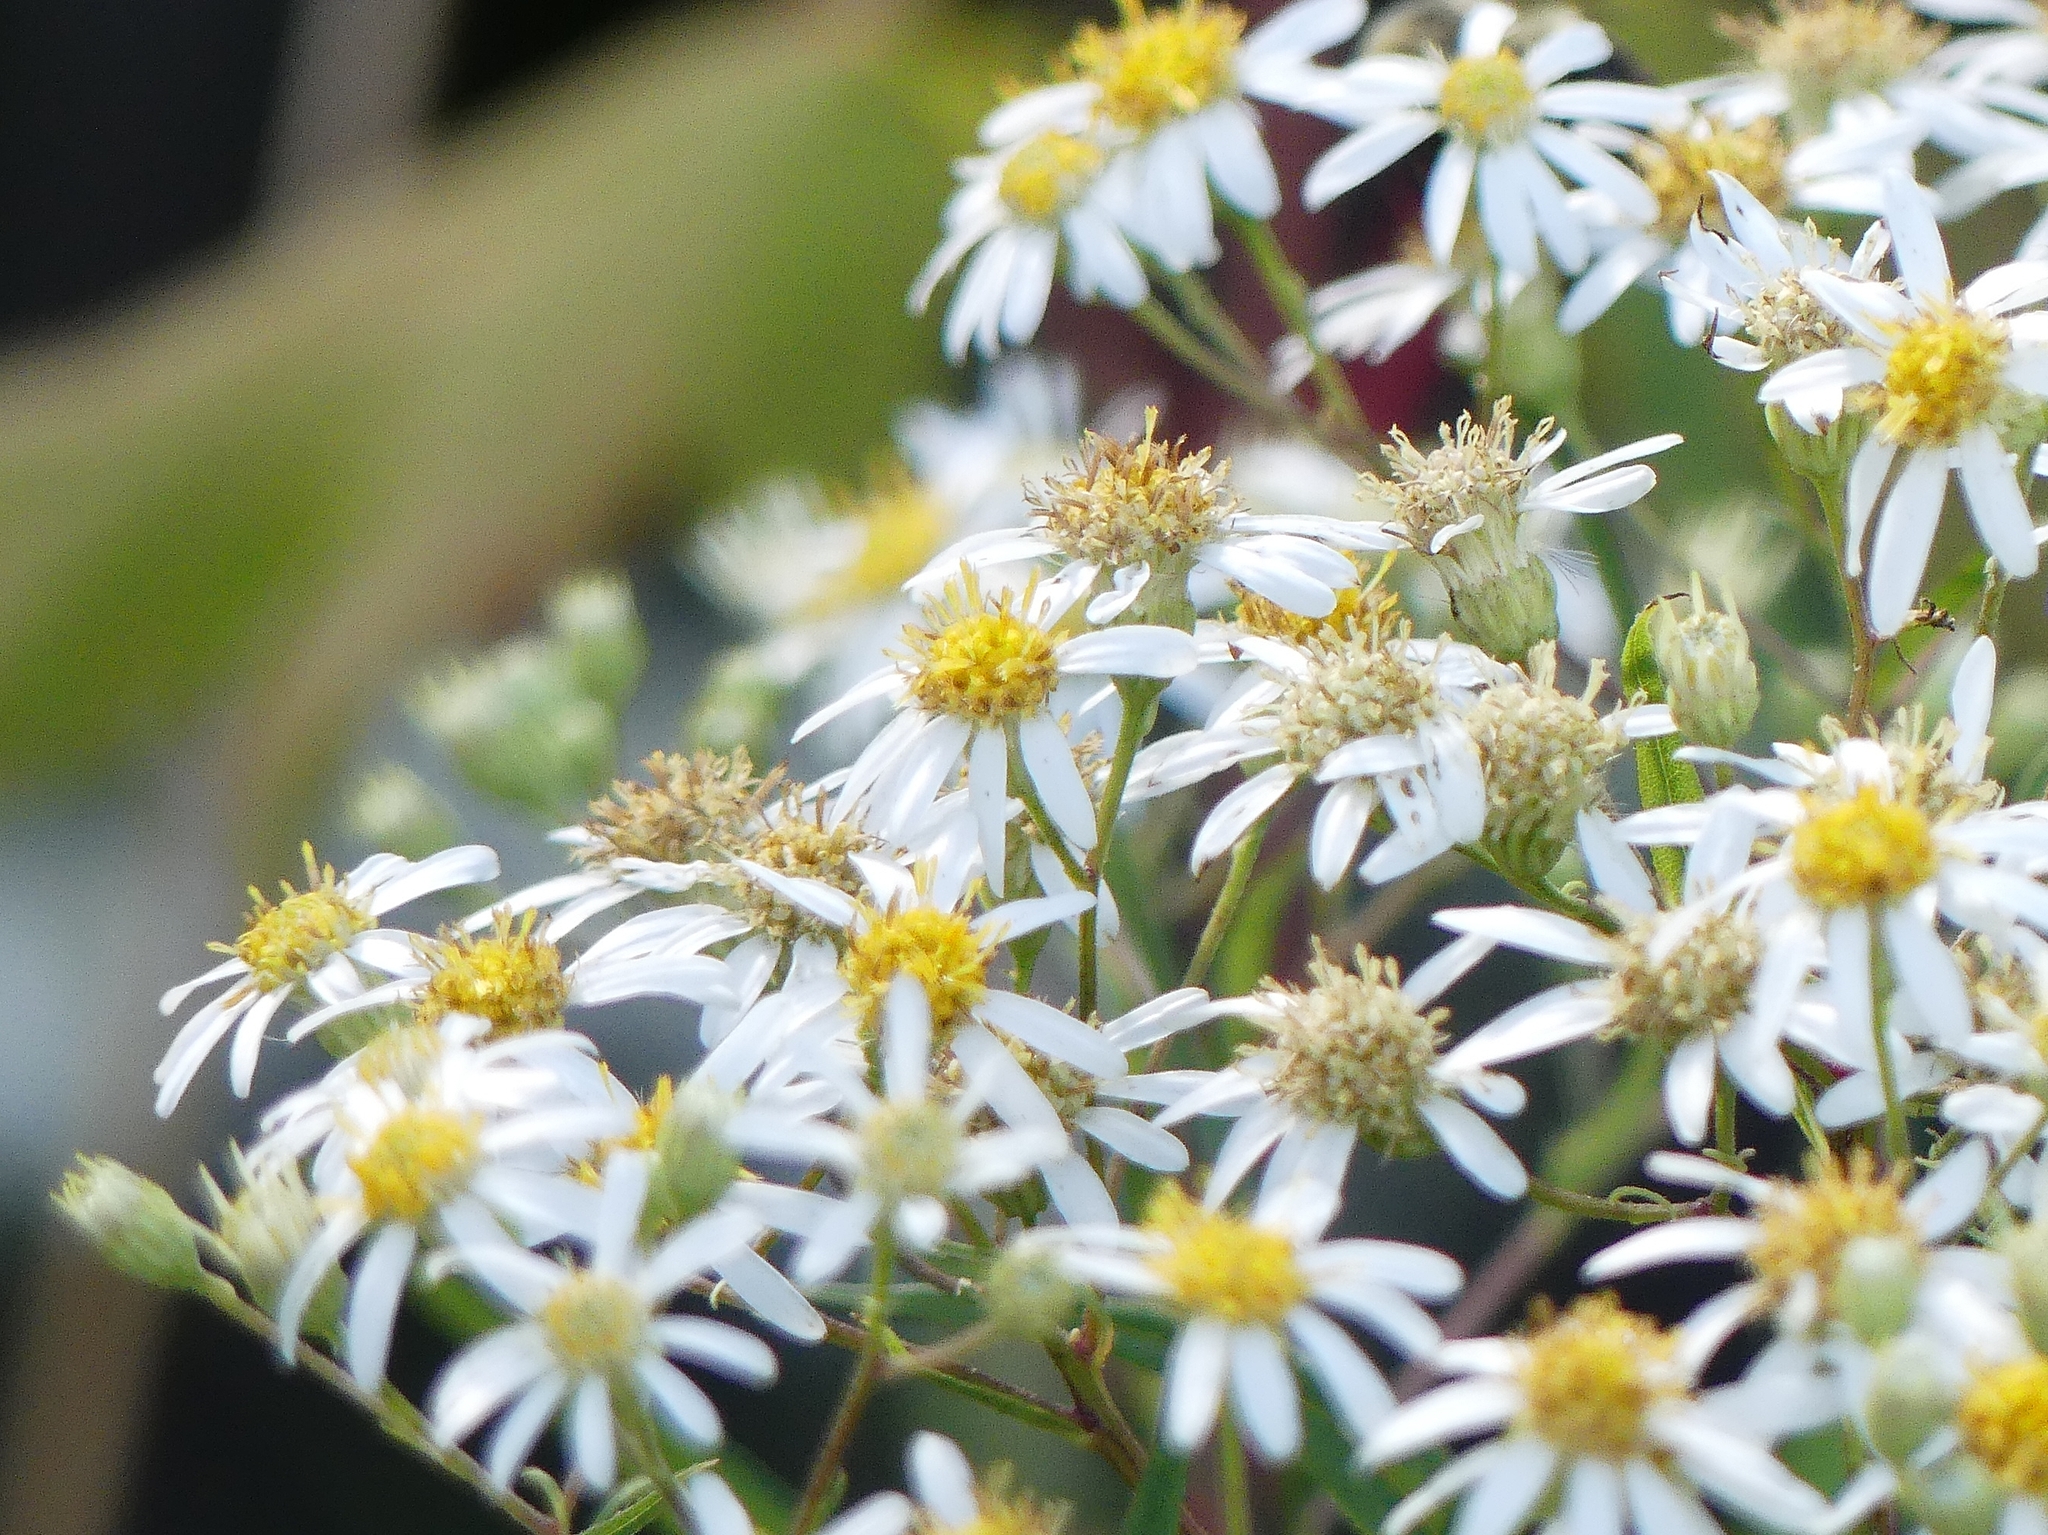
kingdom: Plantae
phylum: Tracheophyta
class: Magnoliopsida
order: Asterales
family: Asteraceae
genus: Doellingeria
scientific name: Doellingeria umbellata
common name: Flat-top white aster
